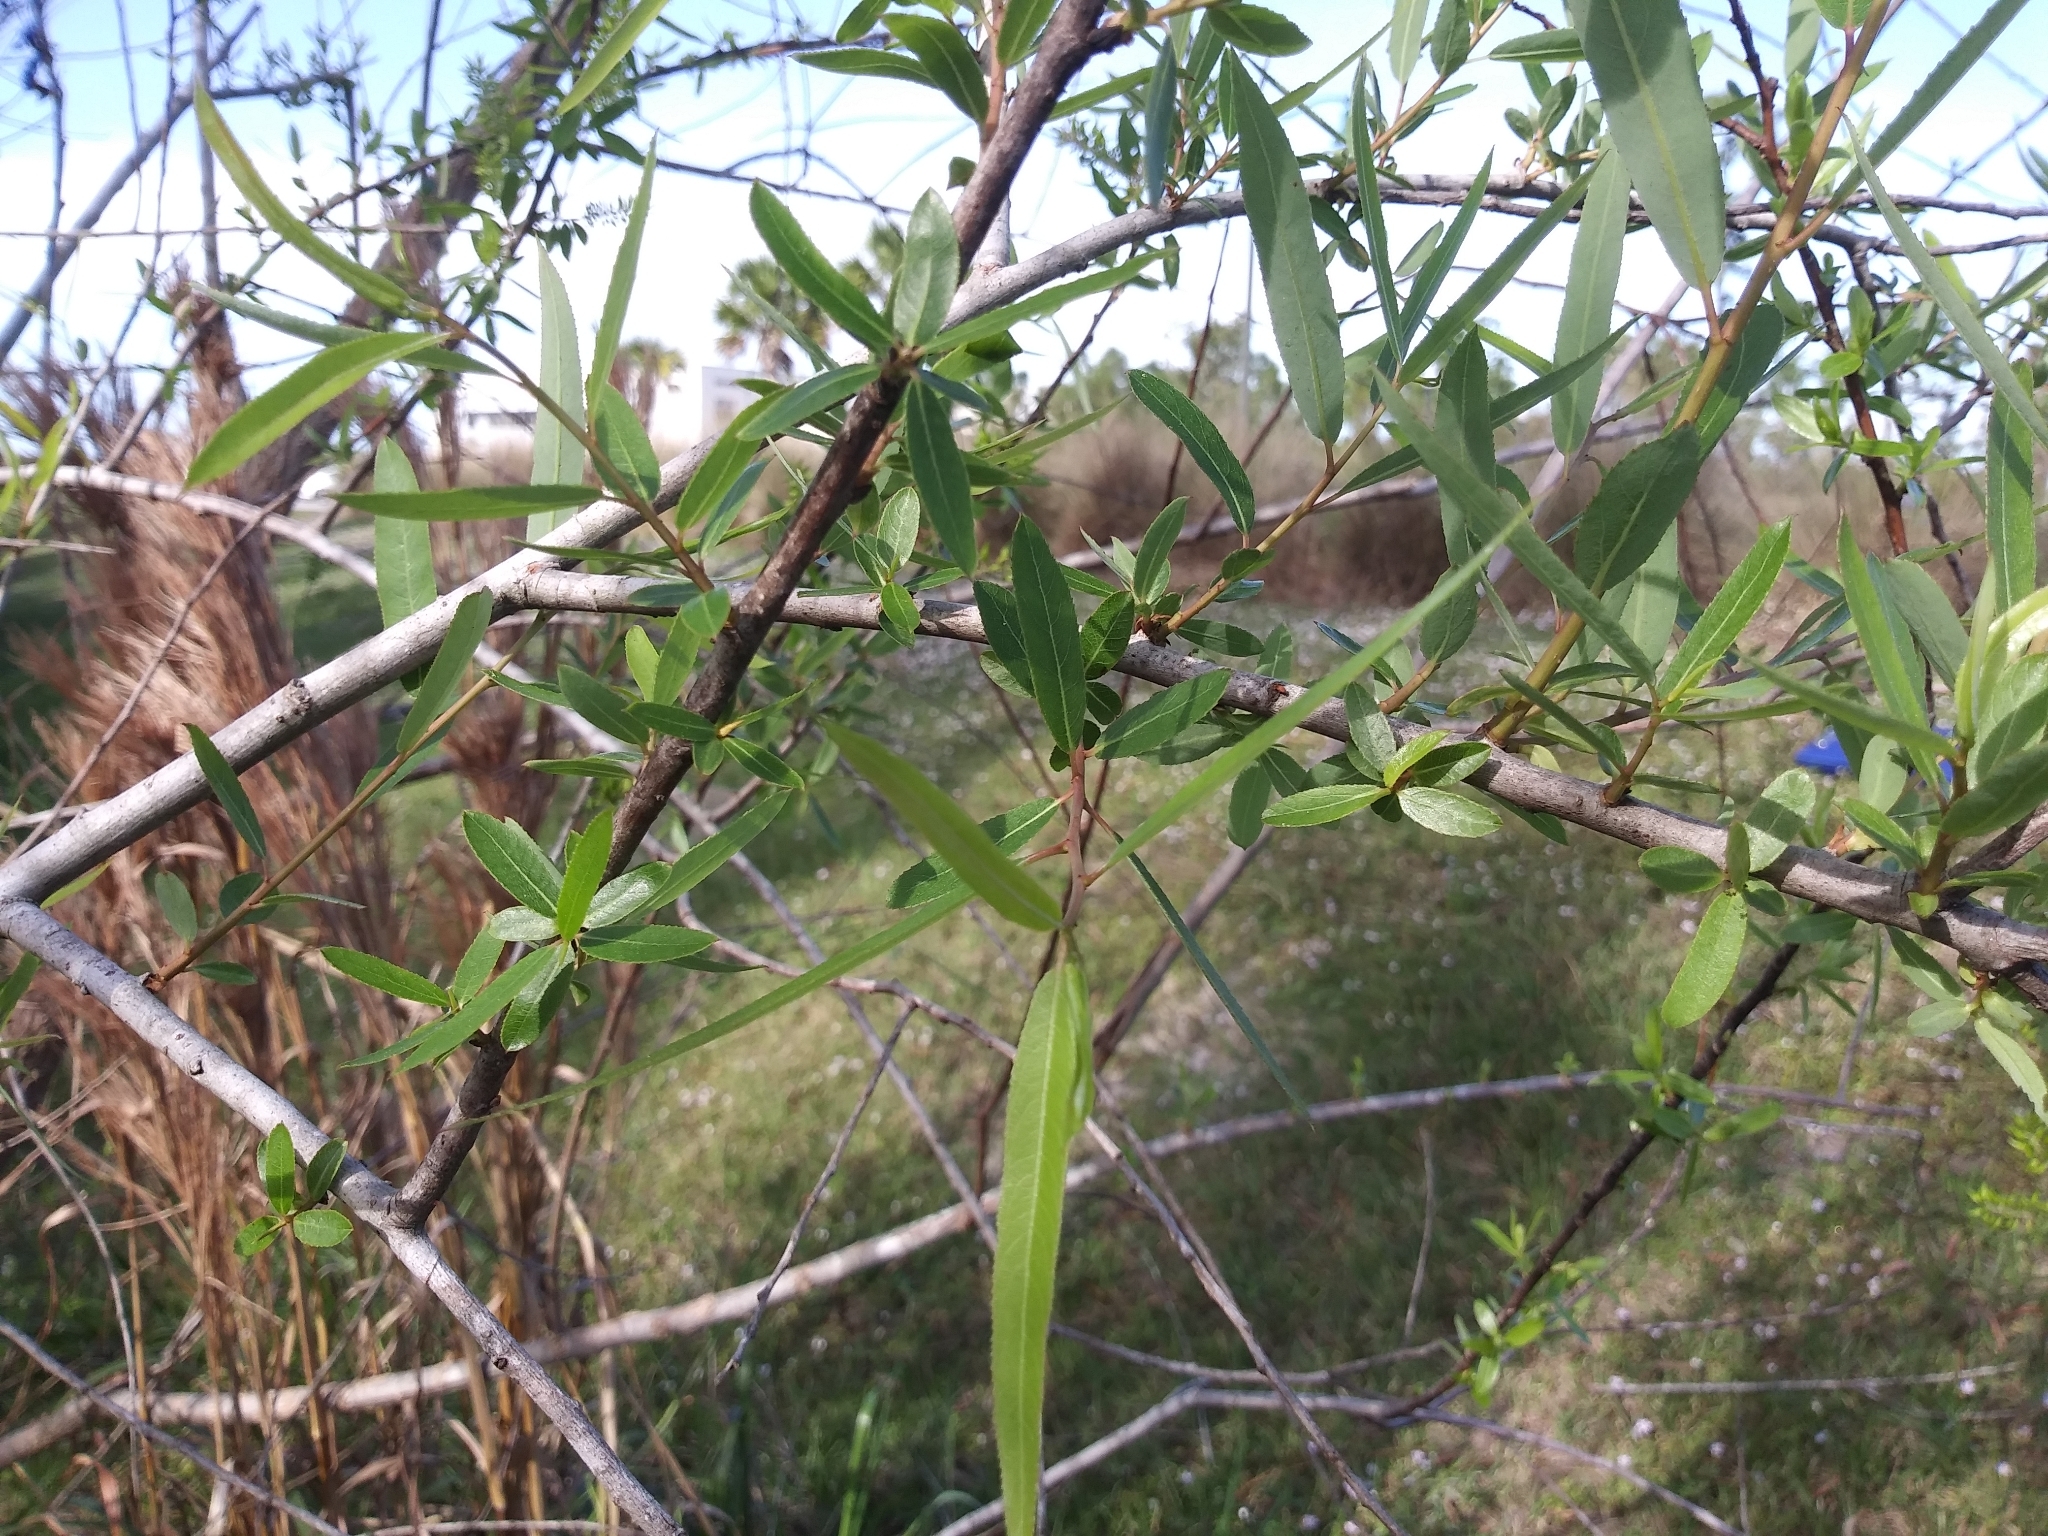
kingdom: Plantae
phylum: Tracheophyta
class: Magnoliopsida
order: Malpighiales
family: Salicaceae
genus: Salix
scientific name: Salix caroliniana
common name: Carolina willow
